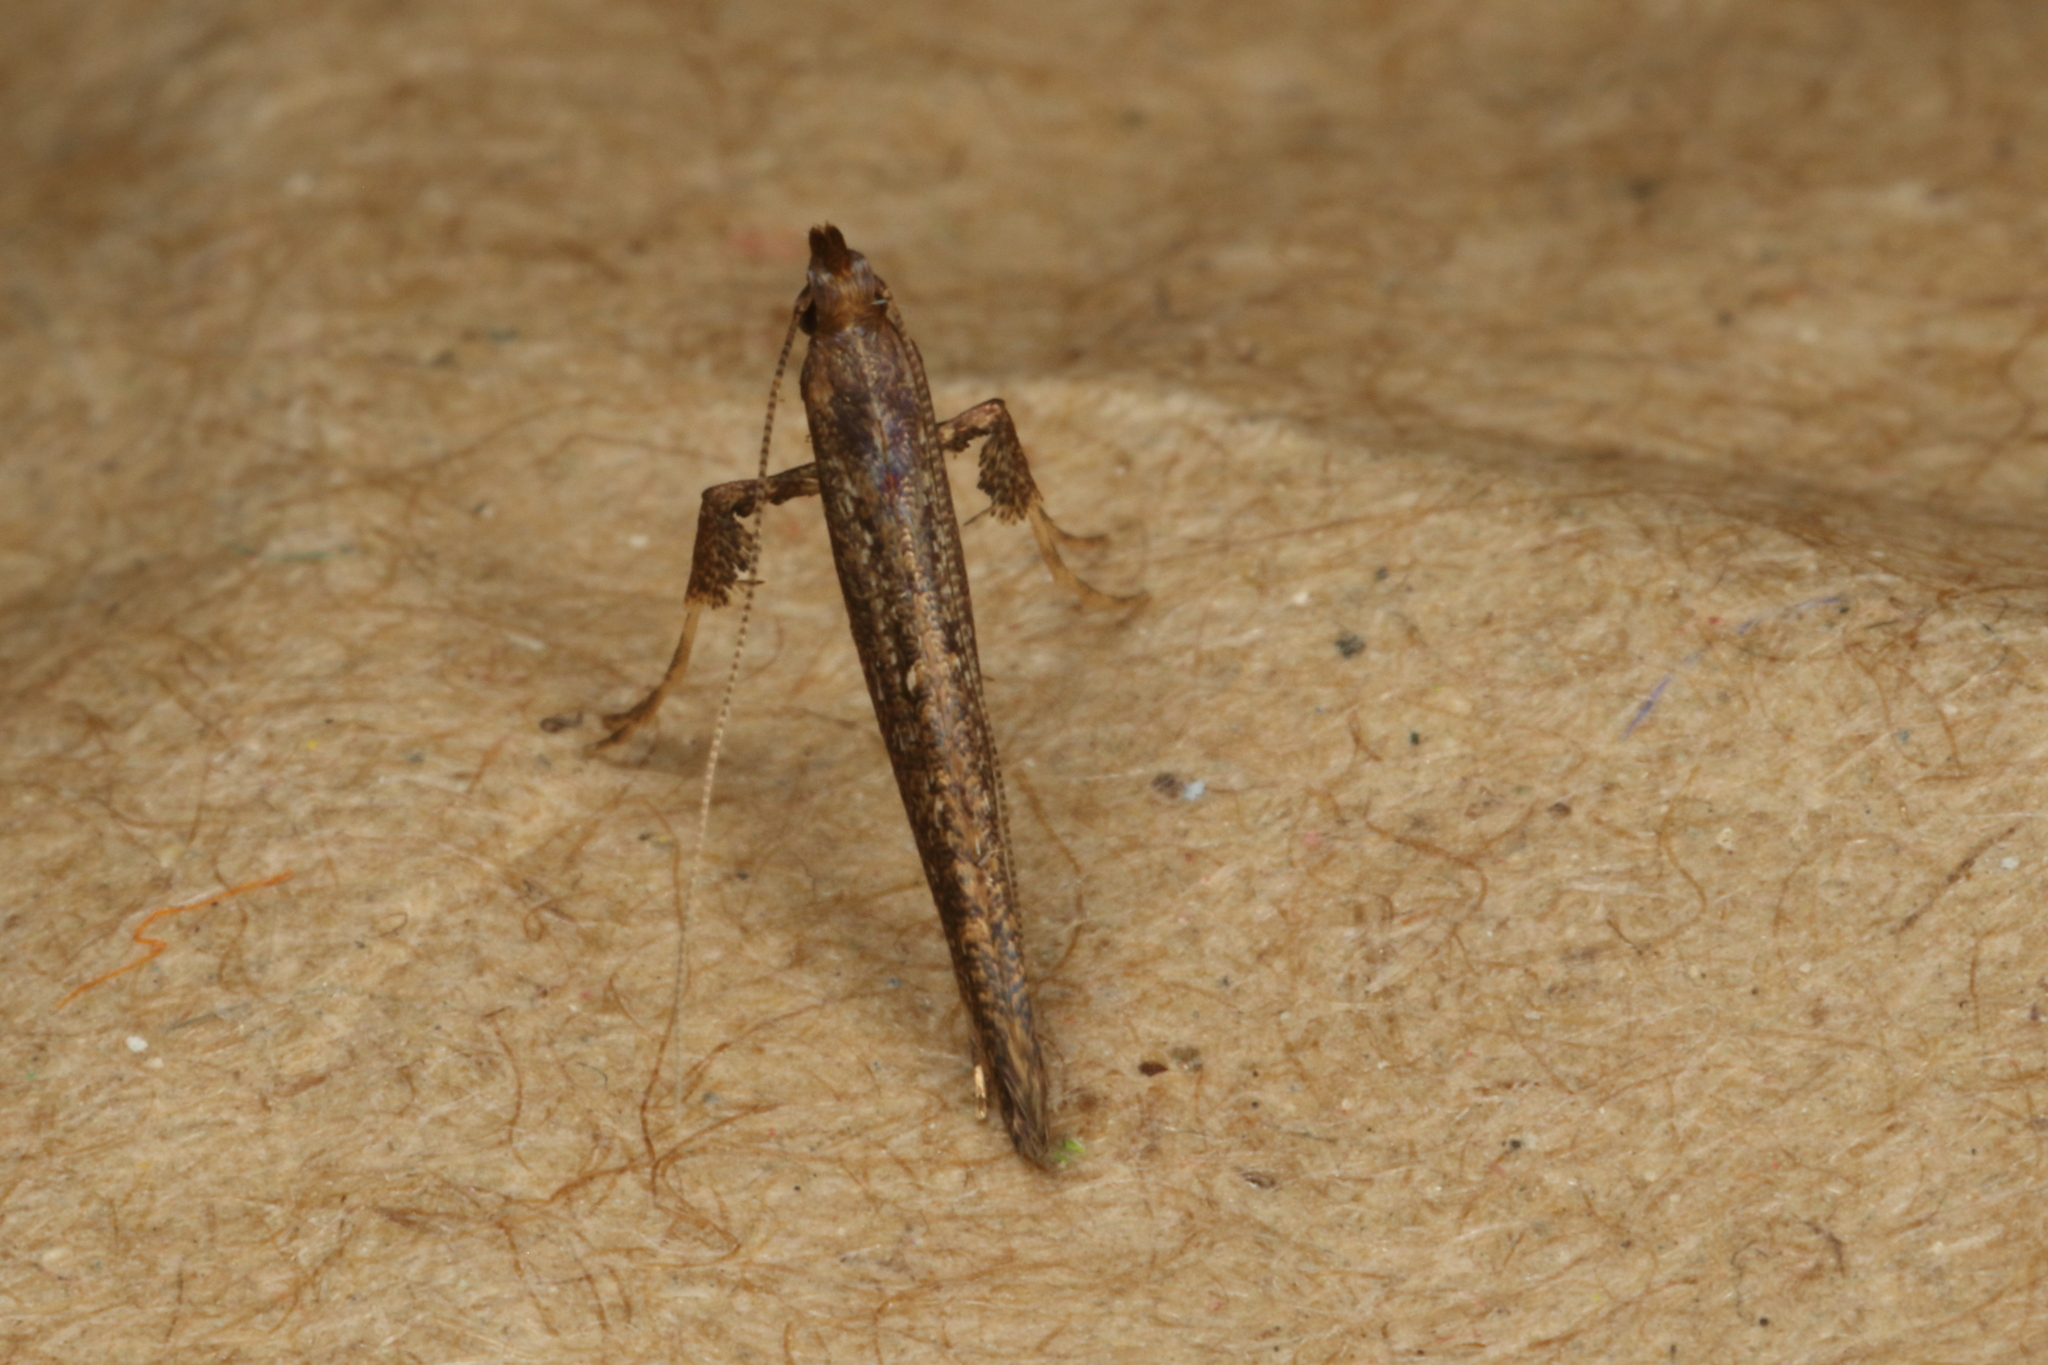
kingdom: Animalia
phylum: Arthropoda
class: Insecta
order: Lepidoptera
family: Gracillariidae
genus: Caloptilia
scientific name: Caloptilia linearis
